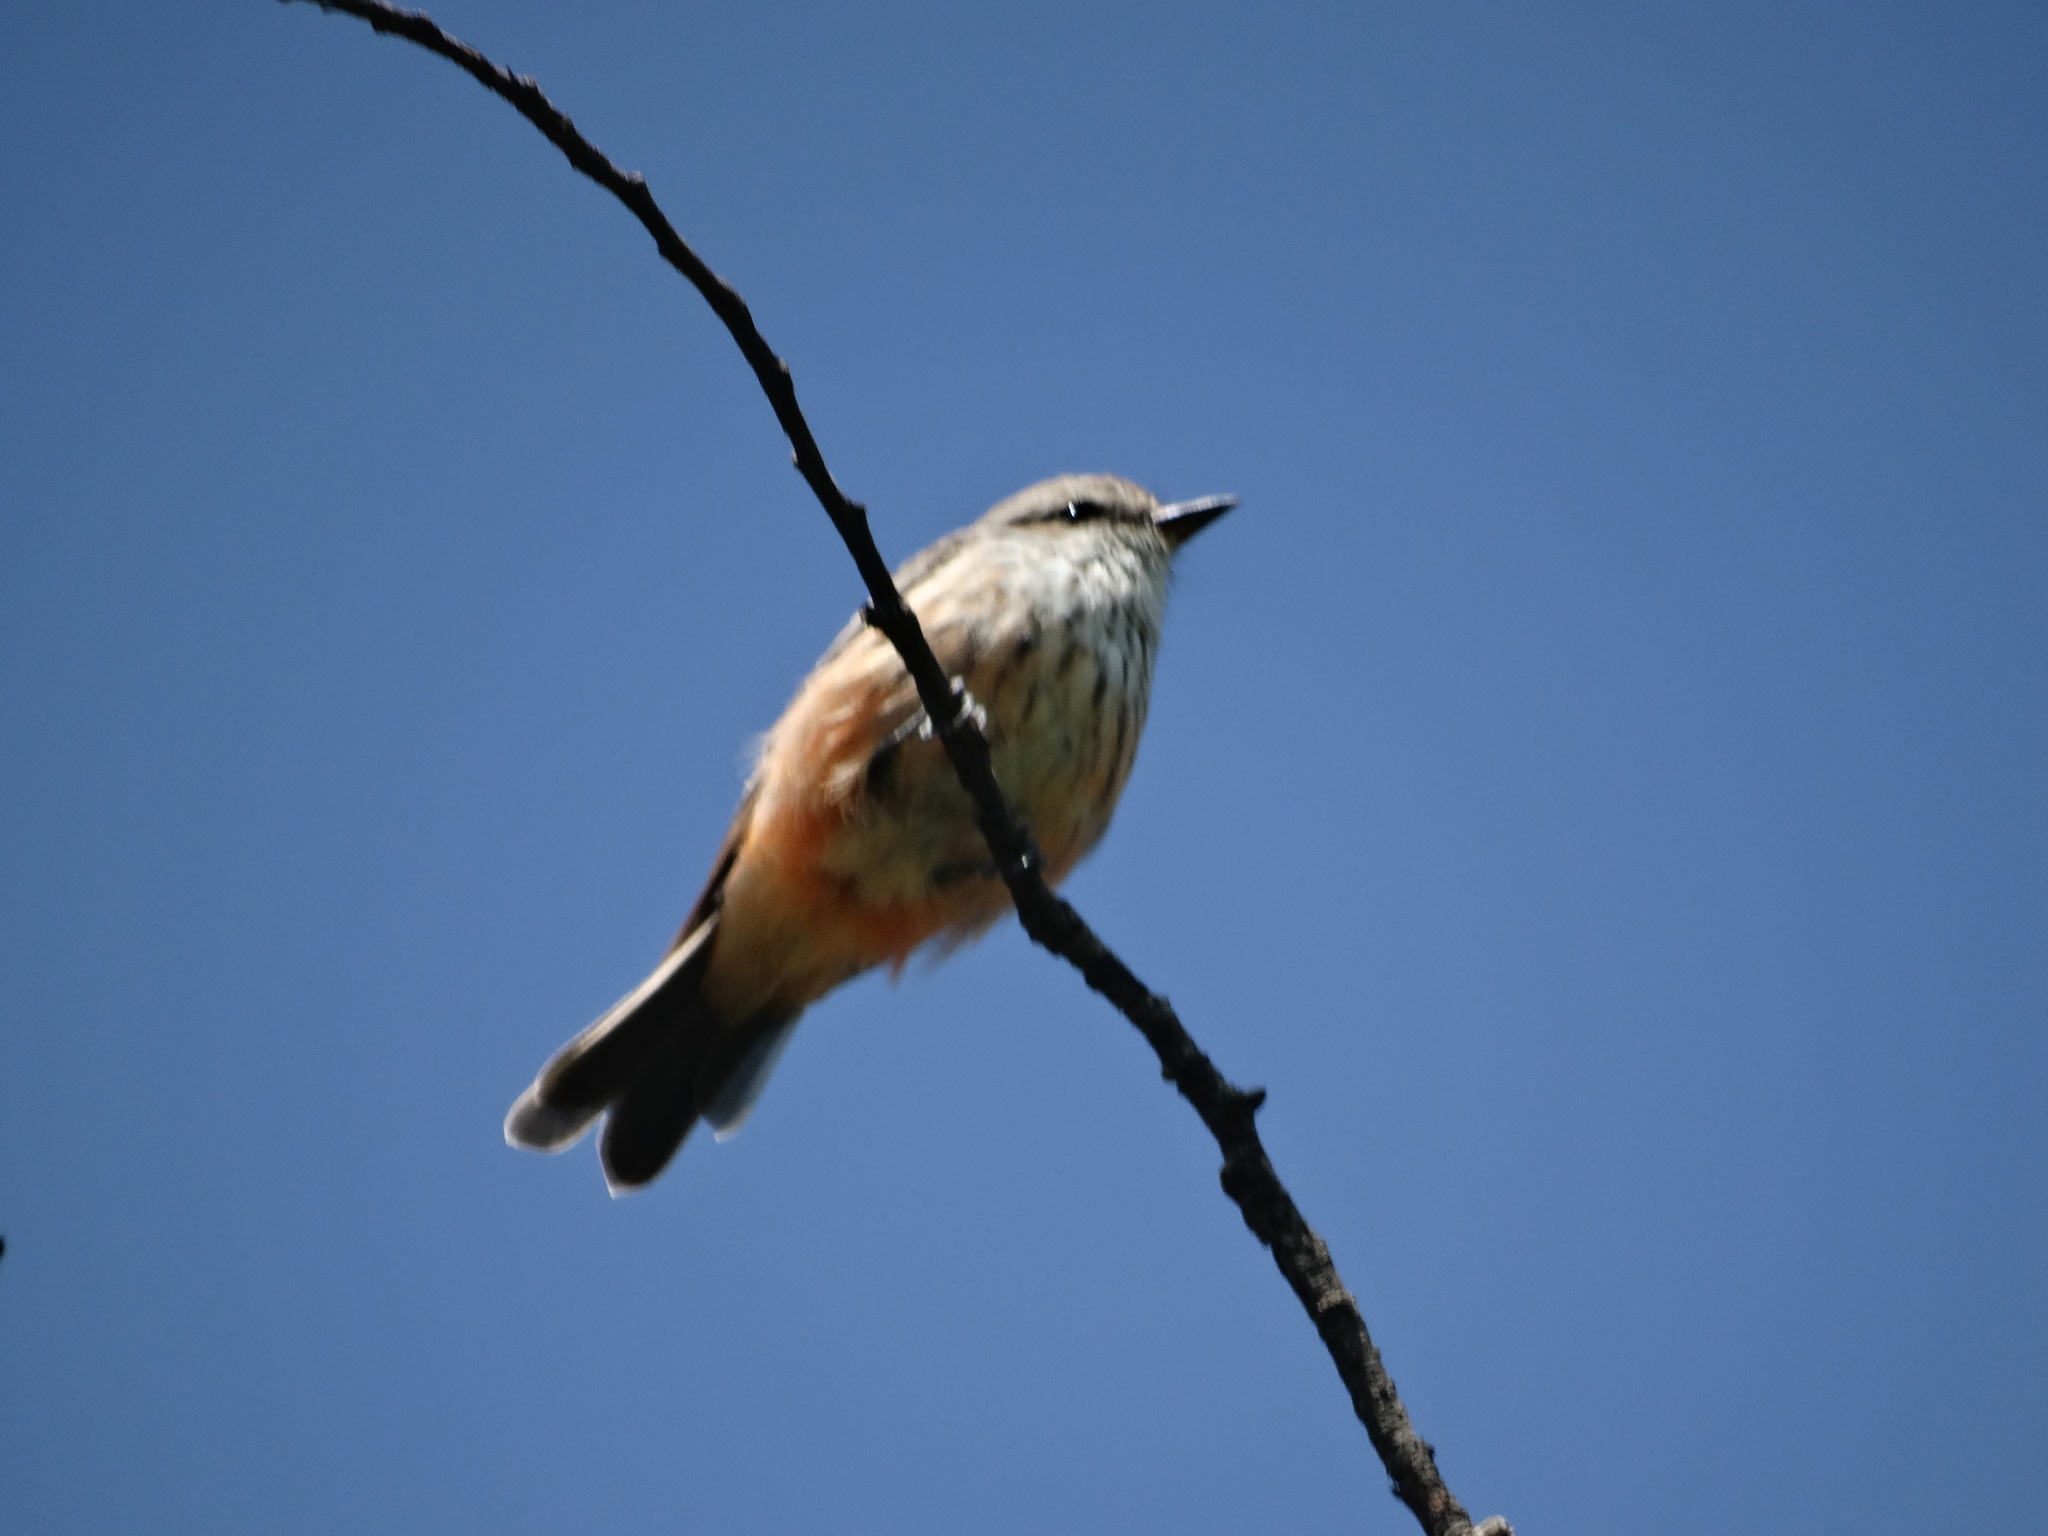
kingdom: Animalia
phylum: Chordata
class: Aves
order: Passeriformes
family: Tyrannidae
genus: Pyrocephalus
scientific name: Pyrocephalus rubinus
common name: Vermilion flycatcher
